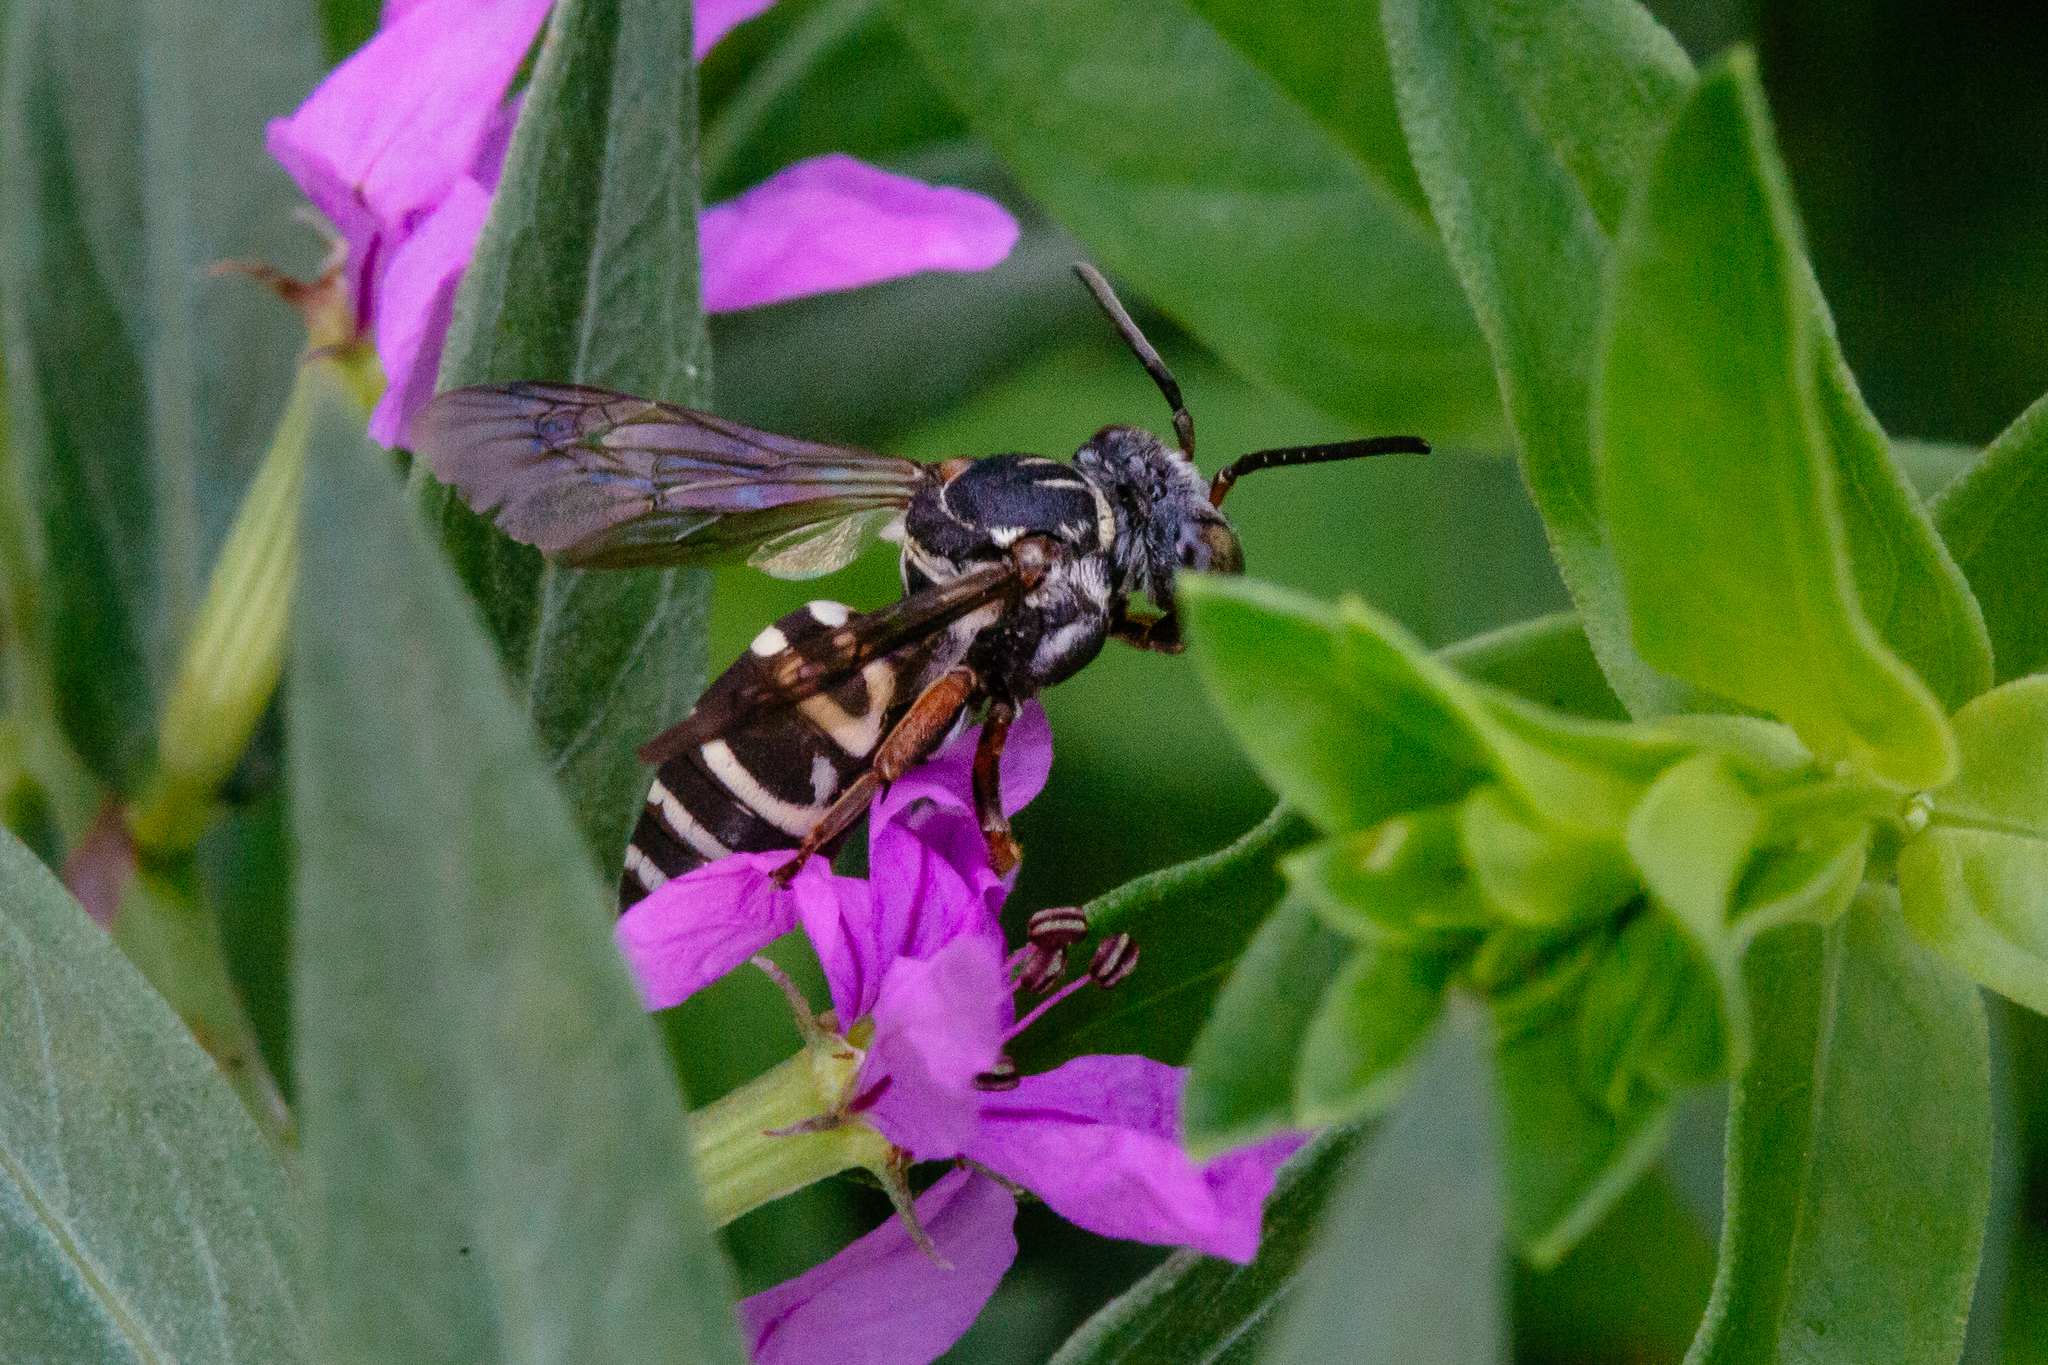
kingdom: Animalia
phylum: Arthropoda
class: Insecta
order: Hymenoptera
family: Apidae
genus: Triepeolus
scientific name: Triepeolus pectoralis
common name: Goldenrod longhorn-cuckoo bee
